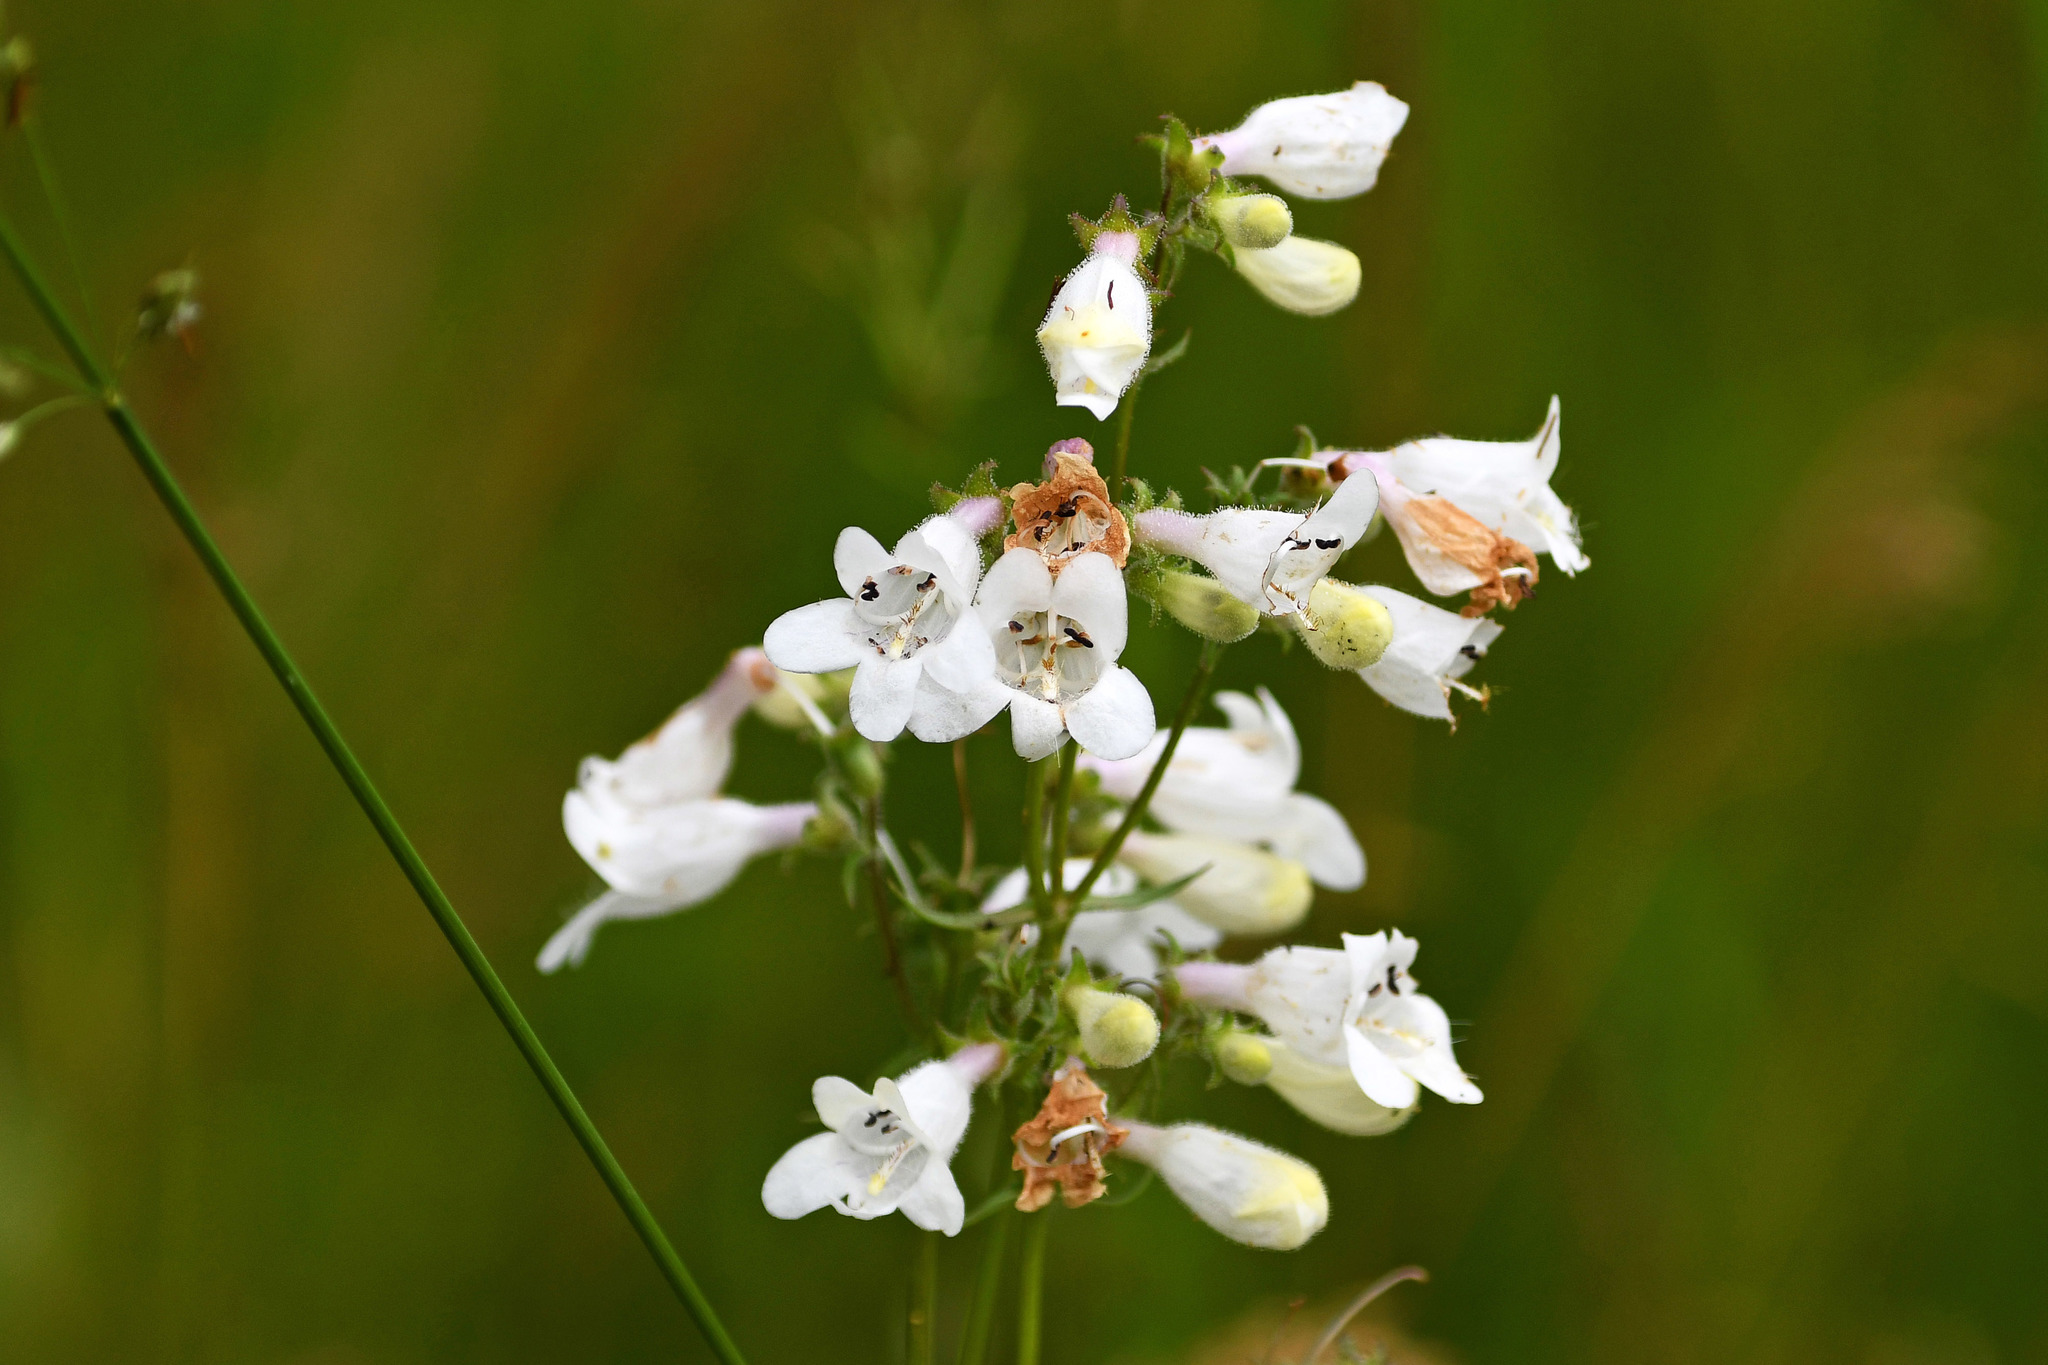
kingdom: Plantae
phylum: Tracheophyta
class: Magnoliopsida
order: Lamiales
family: Plantaginaceae
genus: Penstemon
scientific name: Penstemon digitalis
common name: Foxglove beardtongue
